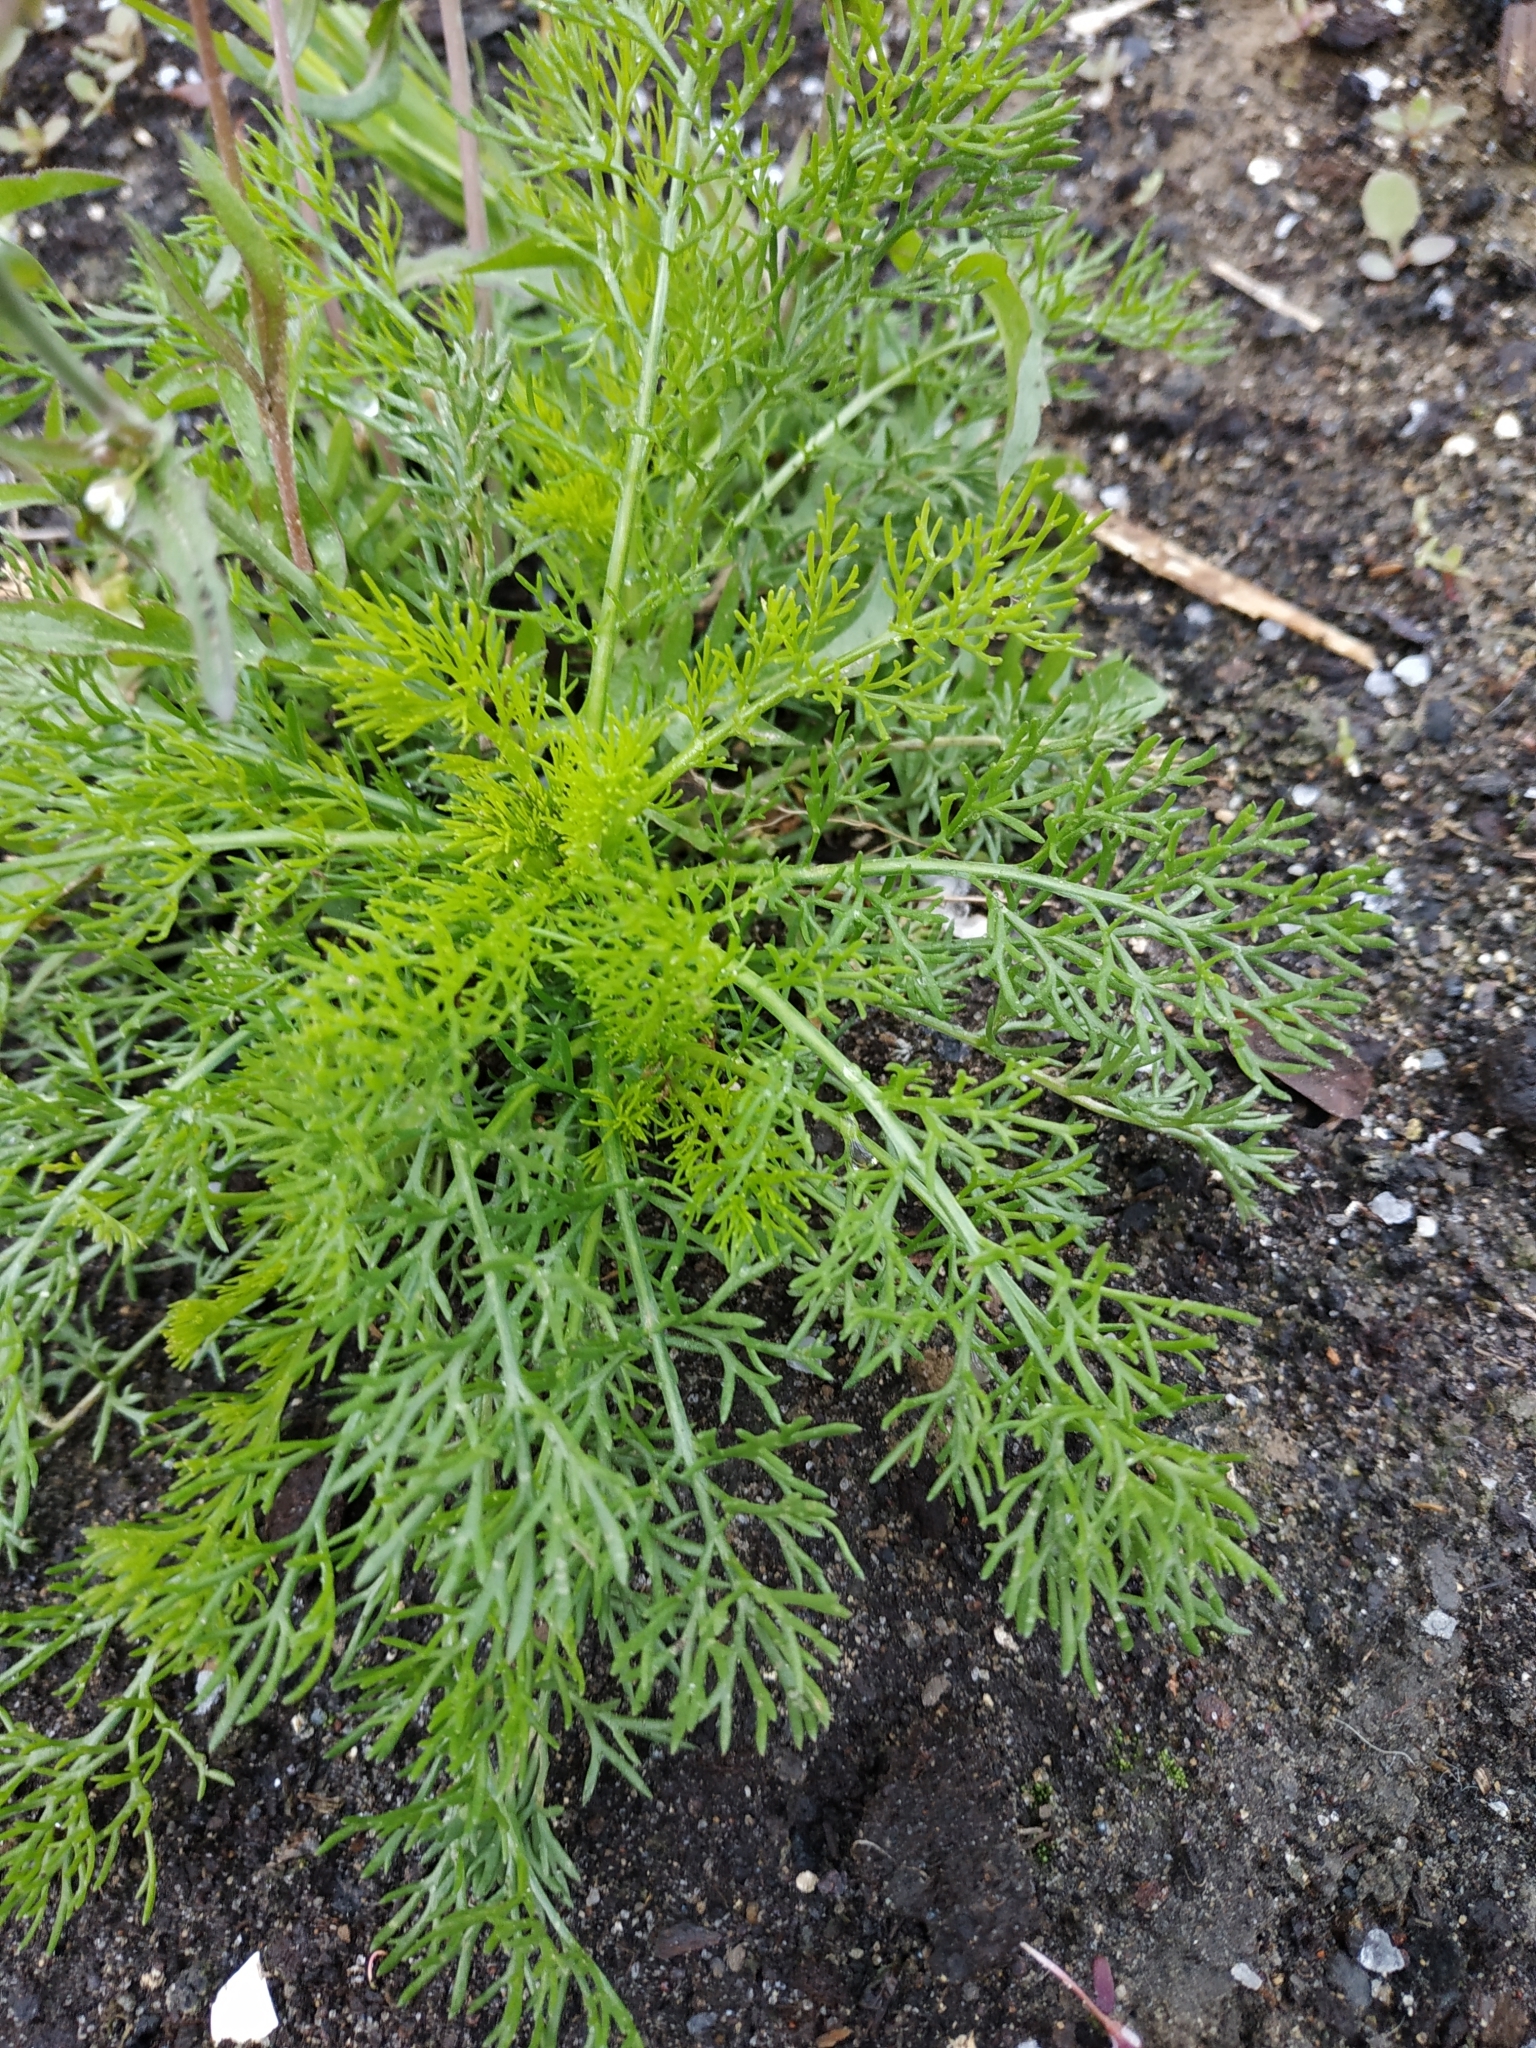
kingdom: Plantae
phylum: Tracheophyta
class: Magnoliopsida
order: Asterales
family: Asteraceae
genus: Tripleurospermum
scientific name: Tripleurospermum inodorum
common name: Scentless mayweed
